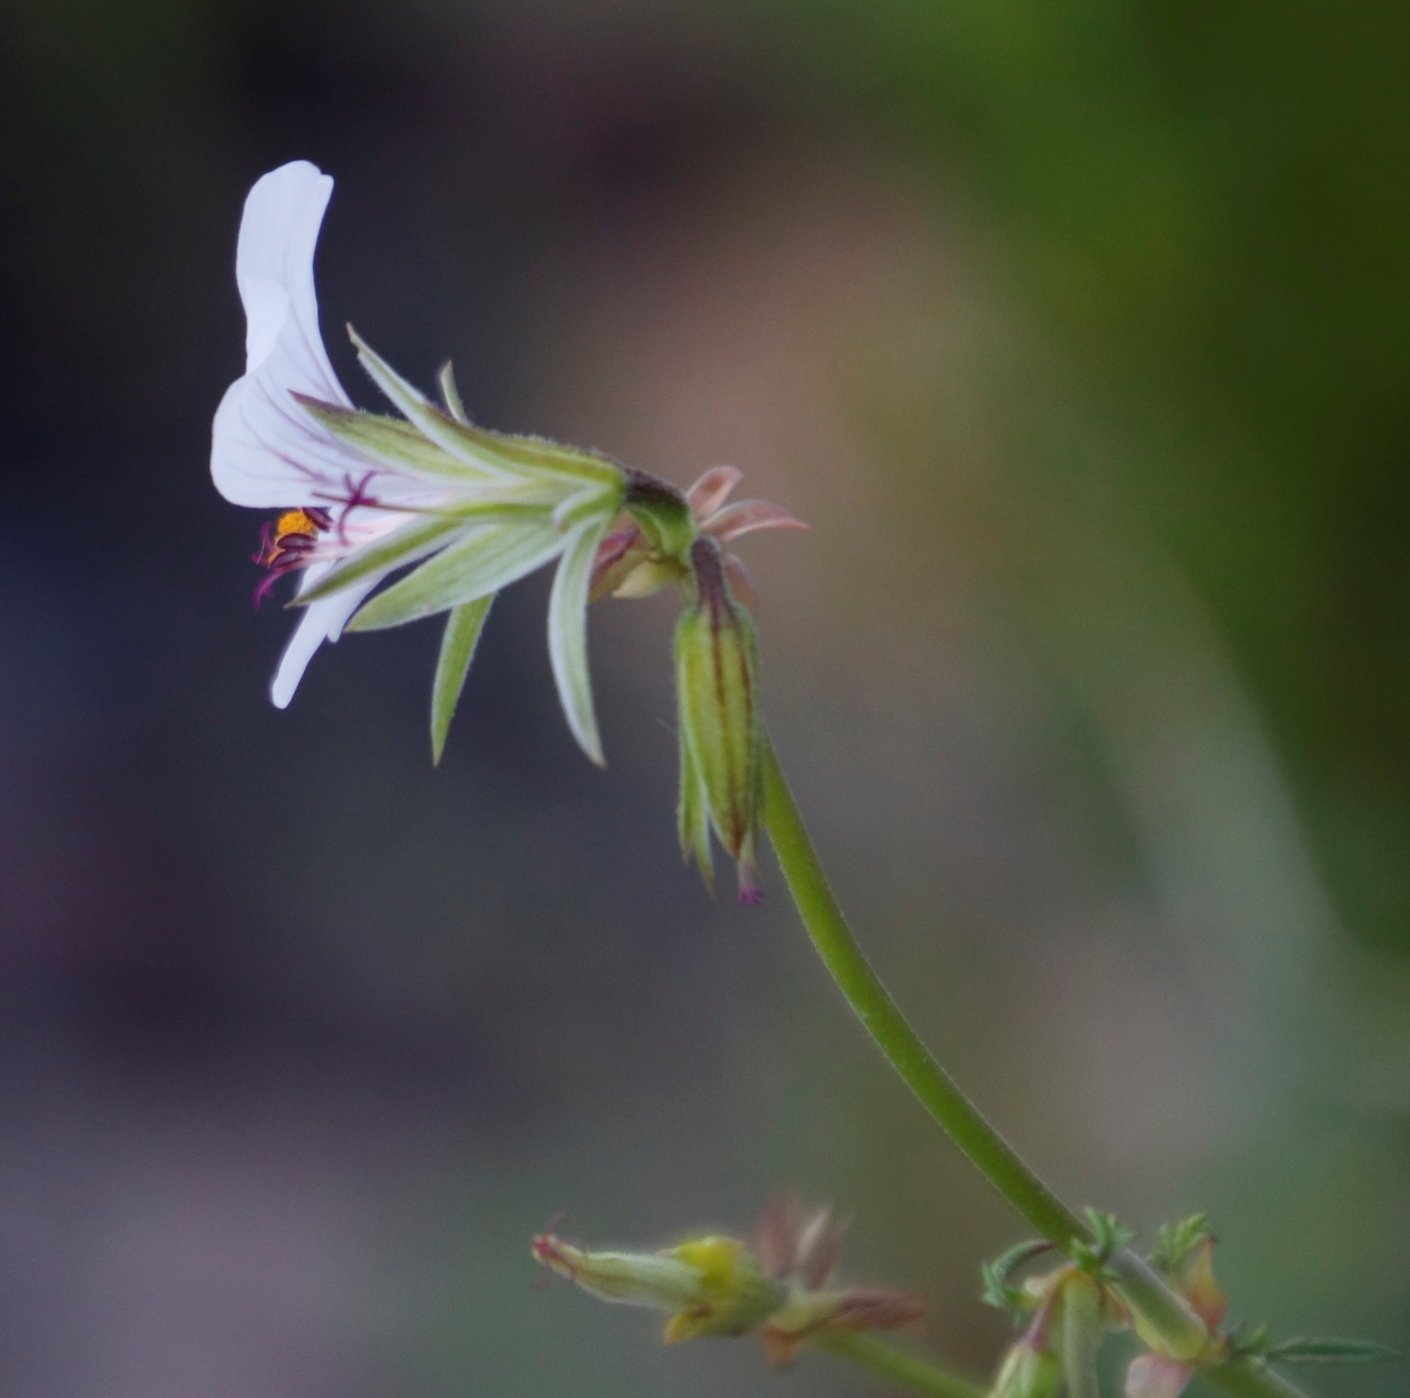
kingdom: Plantae
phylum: Tracheophyta
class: Magnoliopsida
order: Geraniales
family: Geraniaceae
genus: Pelargonium
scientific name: Pelargonium myrrhifolium
